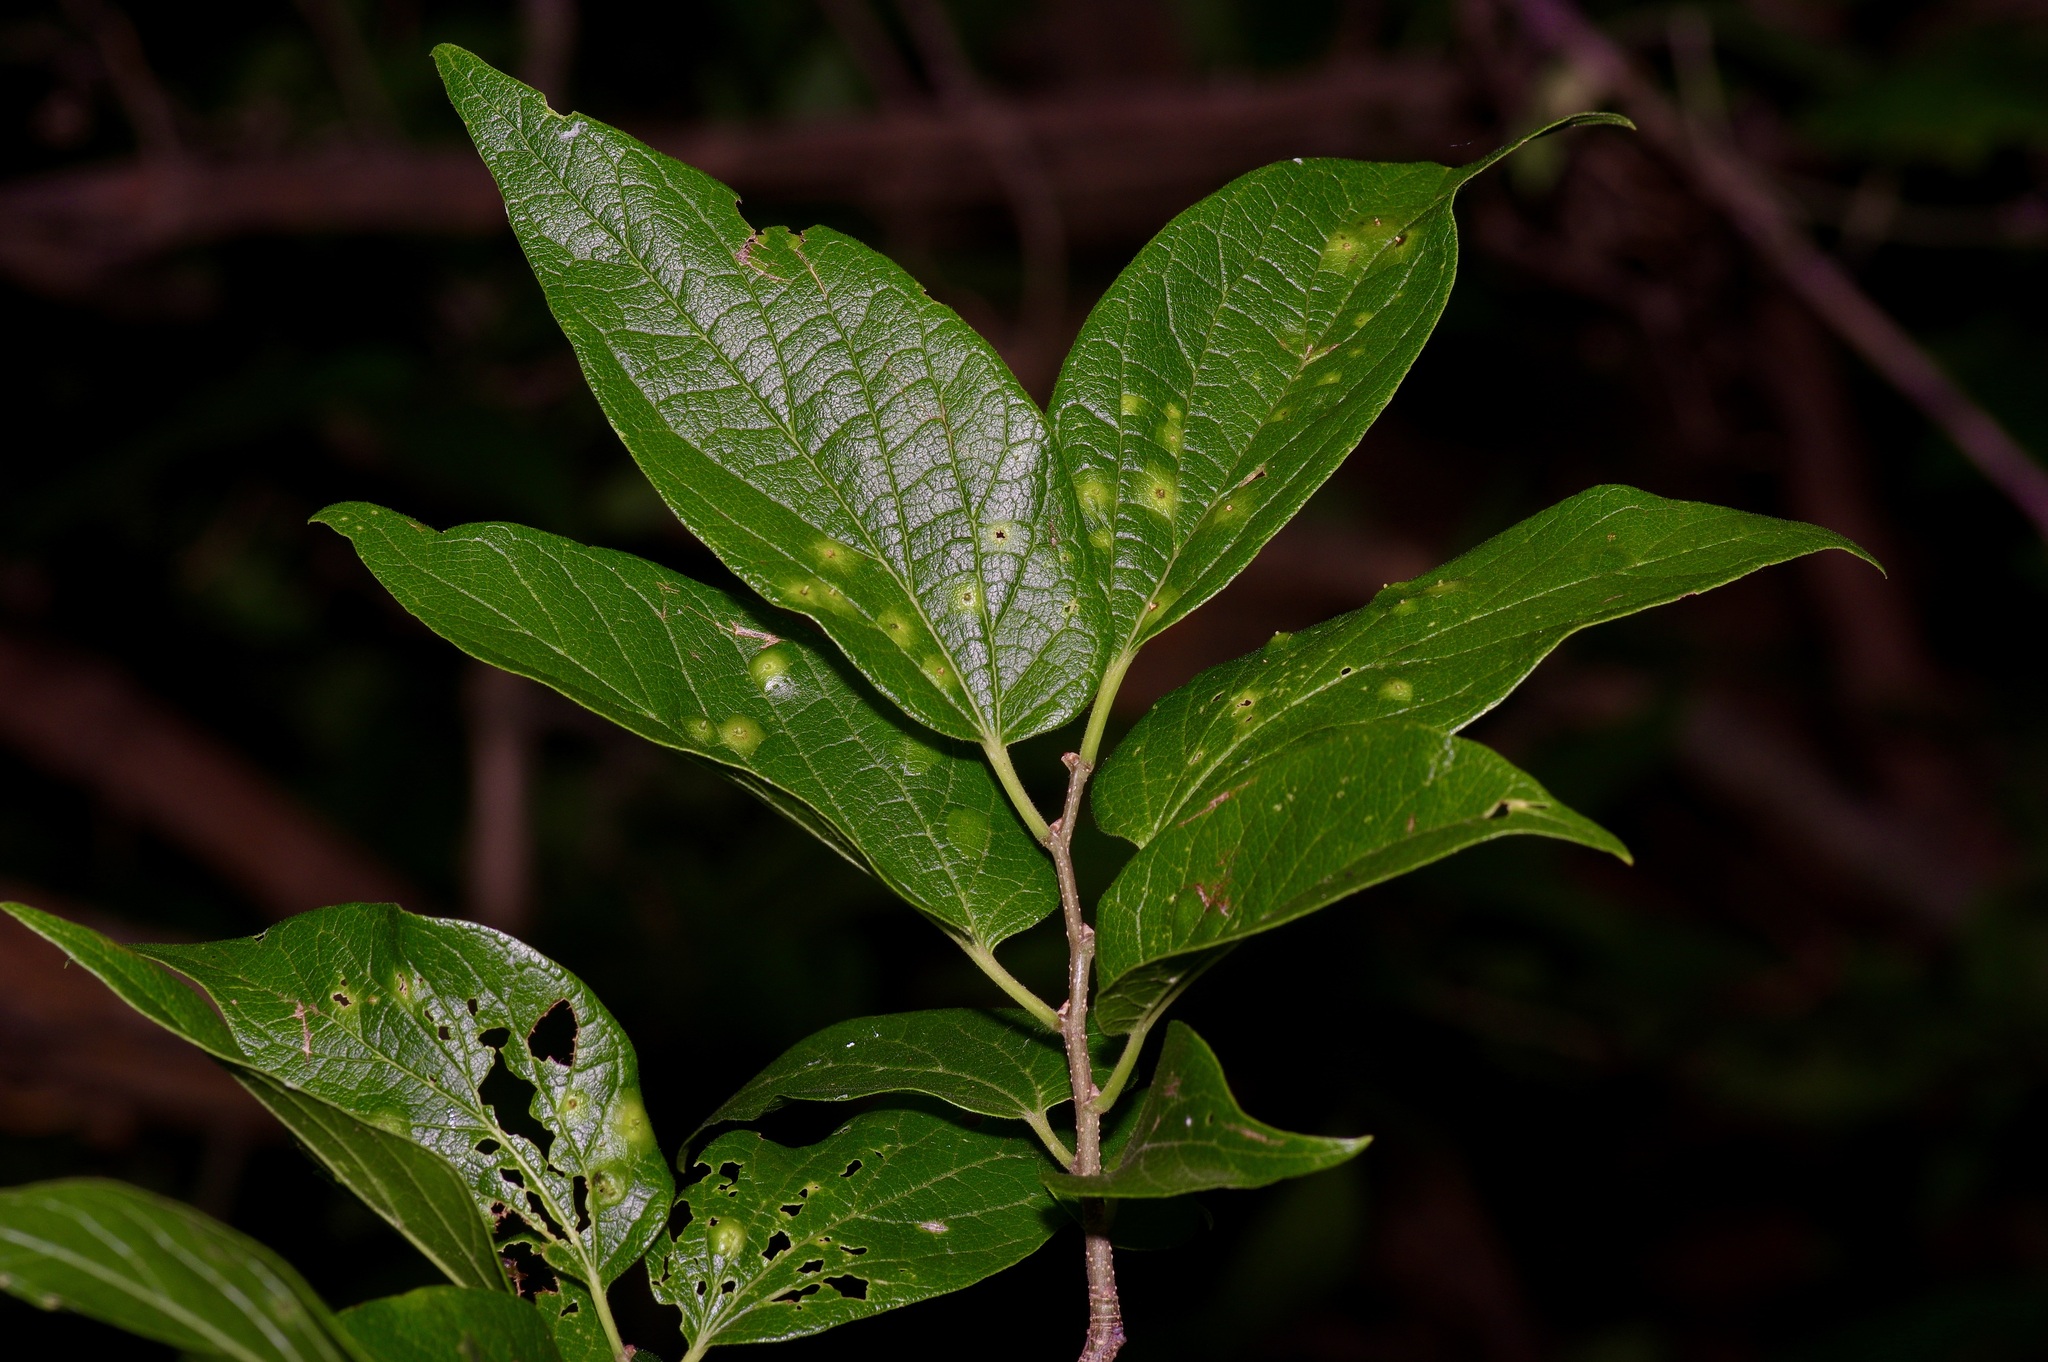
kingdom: Plantae
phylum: Tracheophyta
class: Magnoliopsida
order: Rosales
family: Cannabaceae
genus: Celtis
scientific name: Celtis reticulata
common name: Netleaf hackberry
